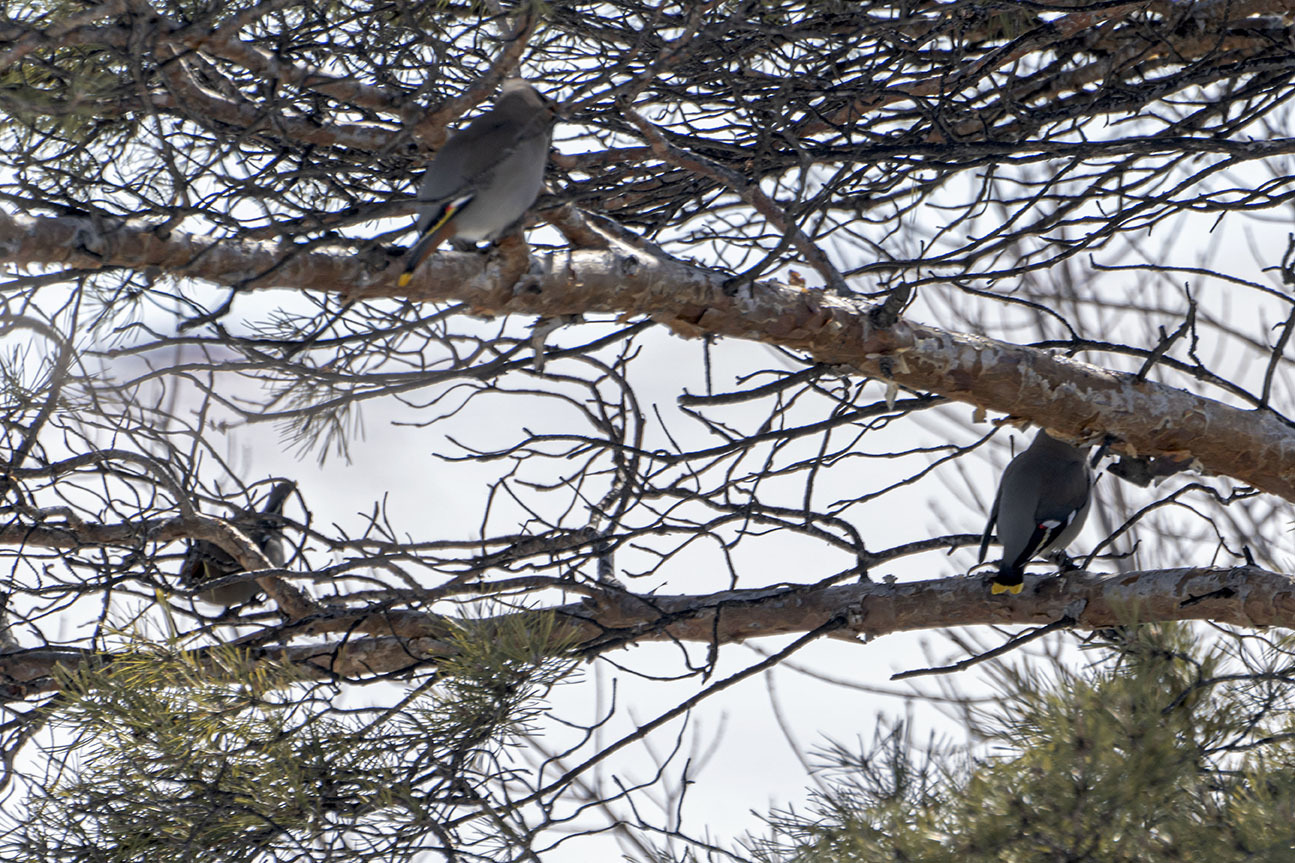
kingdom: Animalia
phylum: Chordata
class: Aves
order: Passeriformes
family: Bombycillidae
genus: Bombycilla
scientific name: Bombycilla garrulus
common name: Bohemian waxwing
